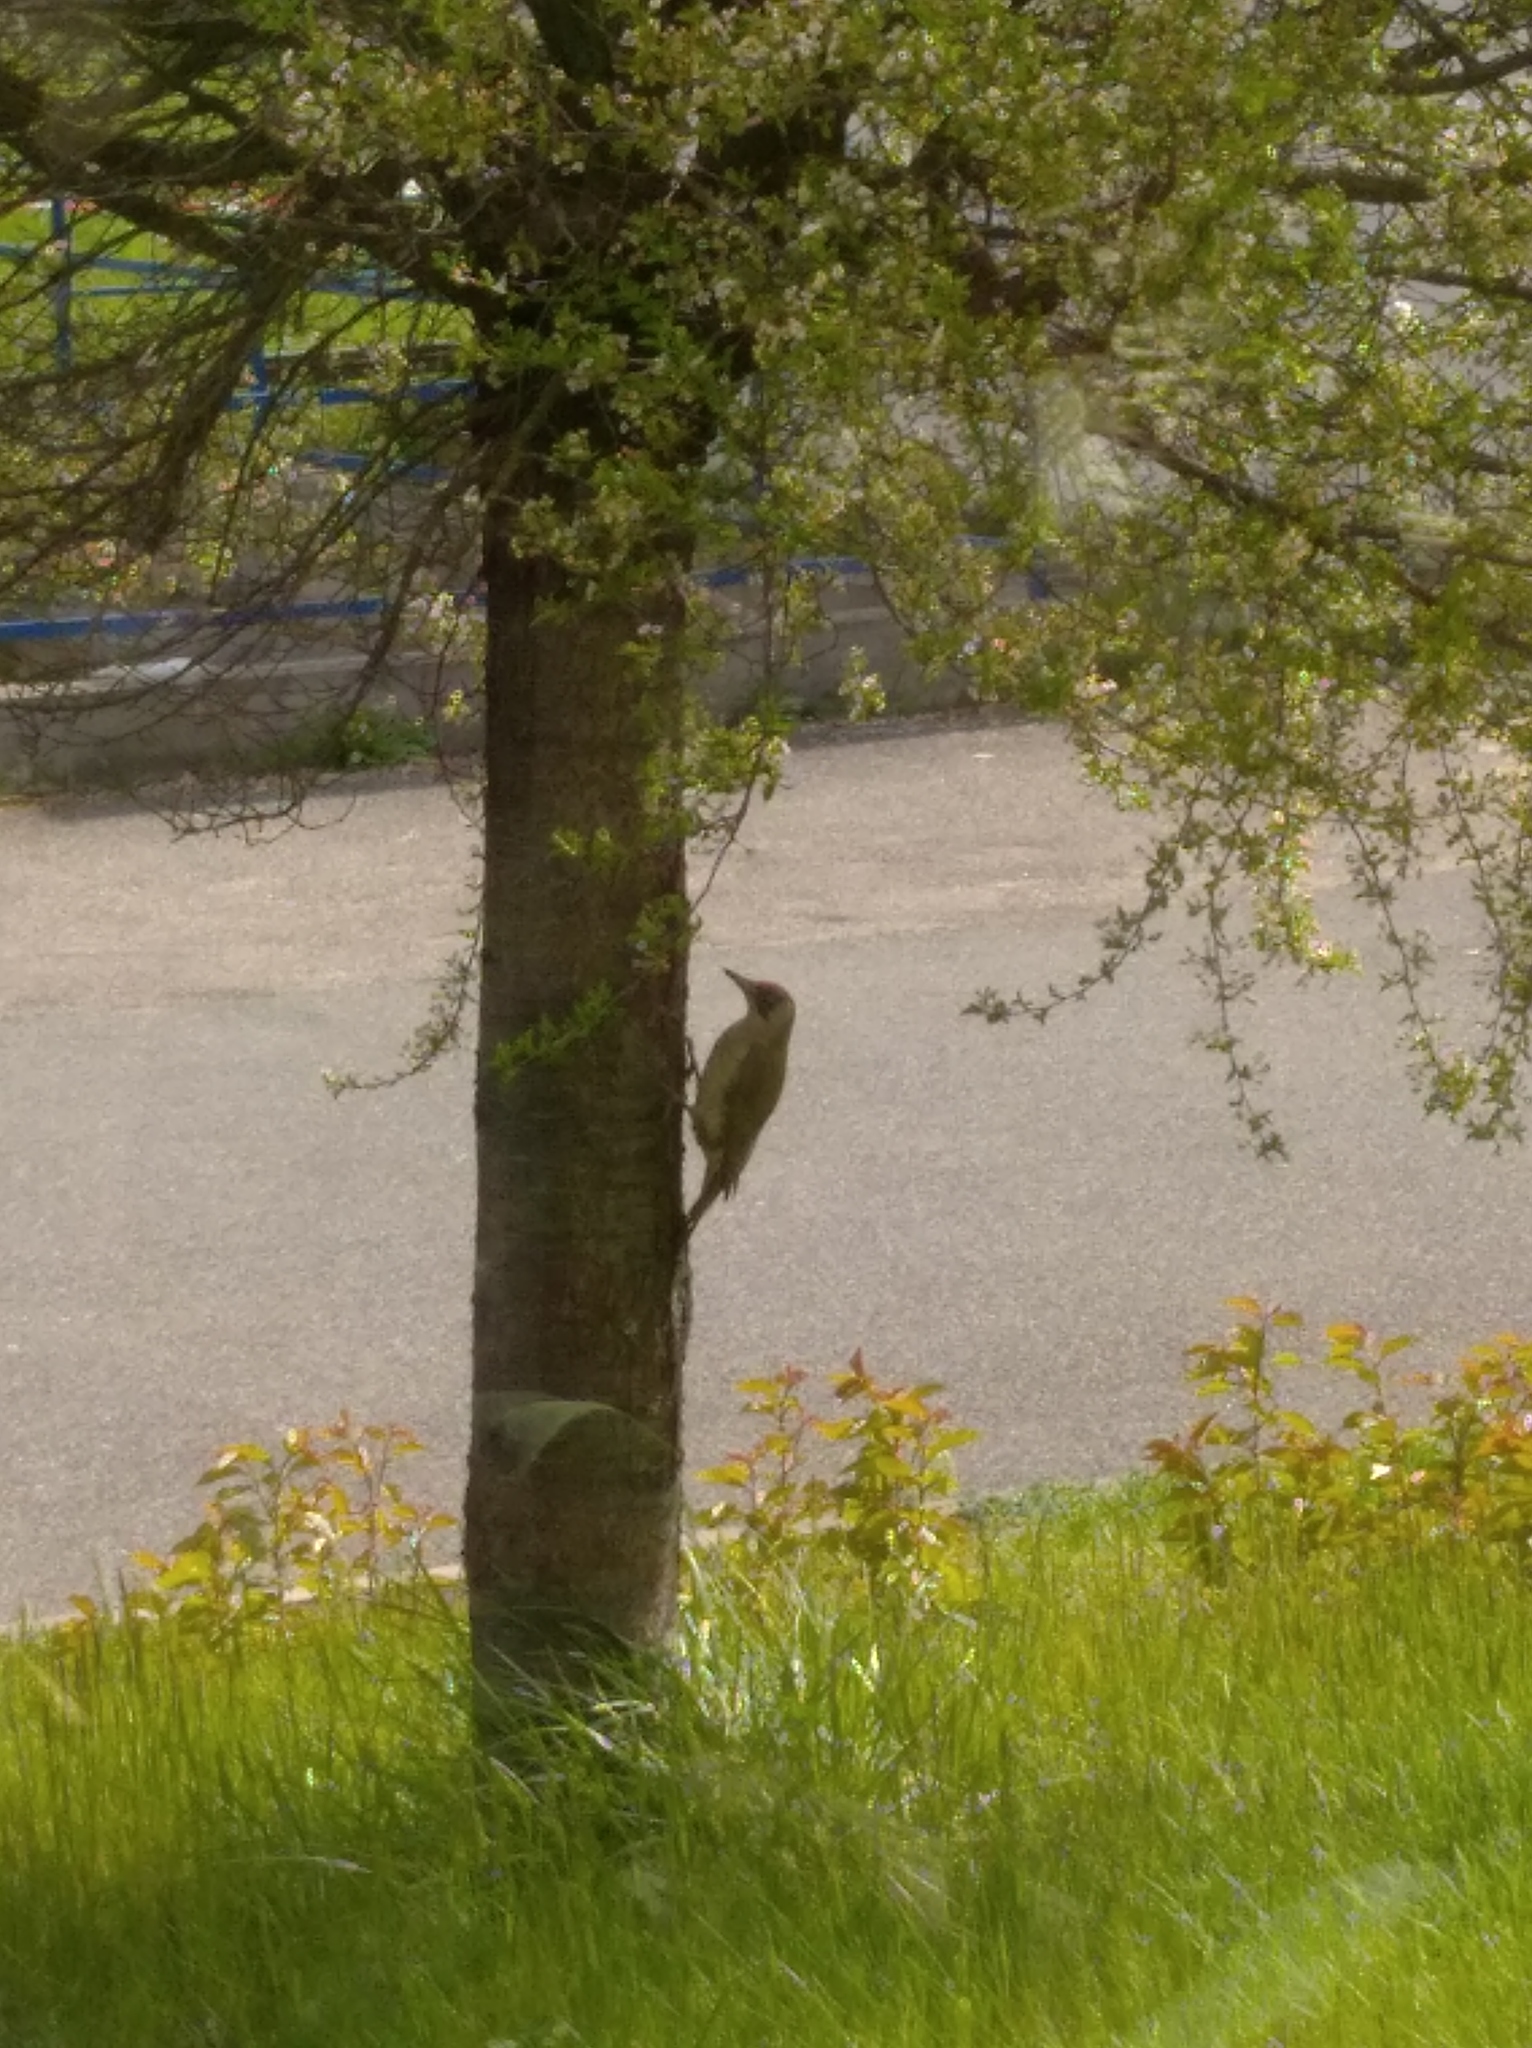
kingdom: Animalia
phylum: Chordata
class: Aves
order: Piciformes
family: Picidae
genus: Picus
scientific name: Picus viridis
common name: European green woodpecker
